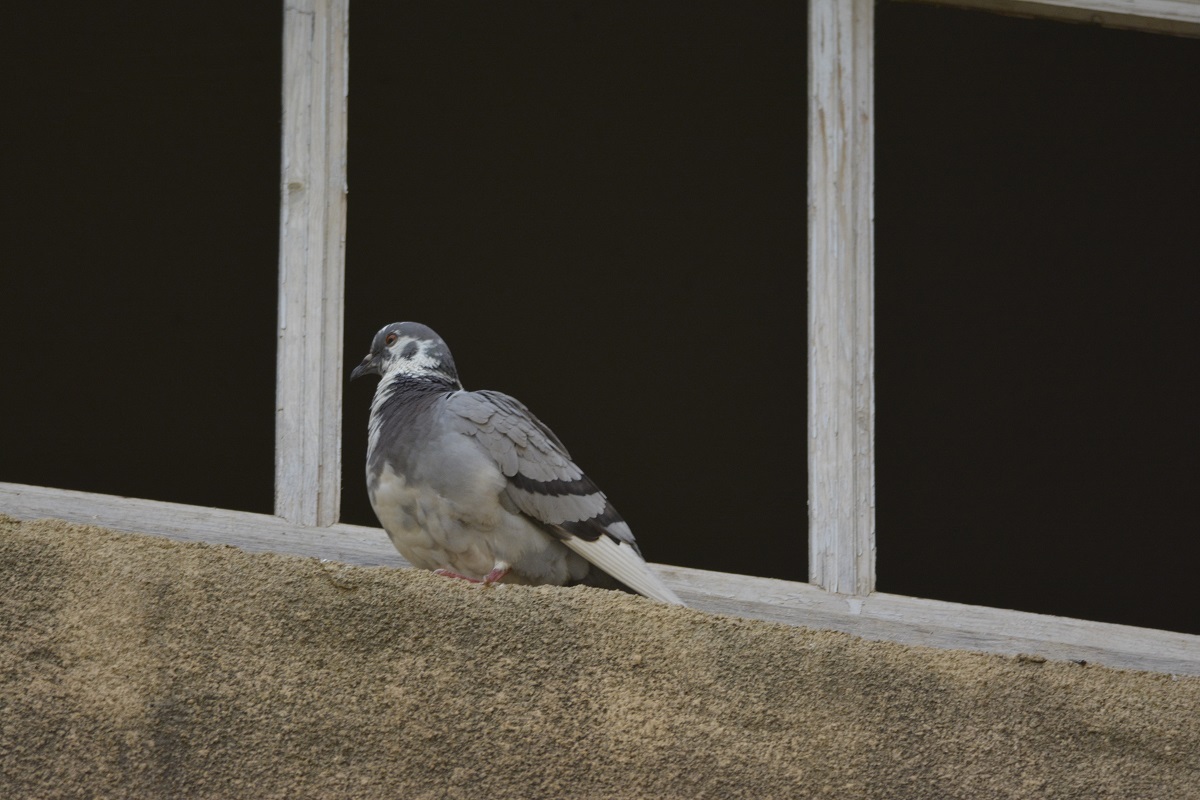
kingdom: Animalia
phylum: Chordata
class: Aves
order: Columbiformes
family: Columbidae
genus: Columba
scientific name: Columba livia
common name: Rock pigeon
